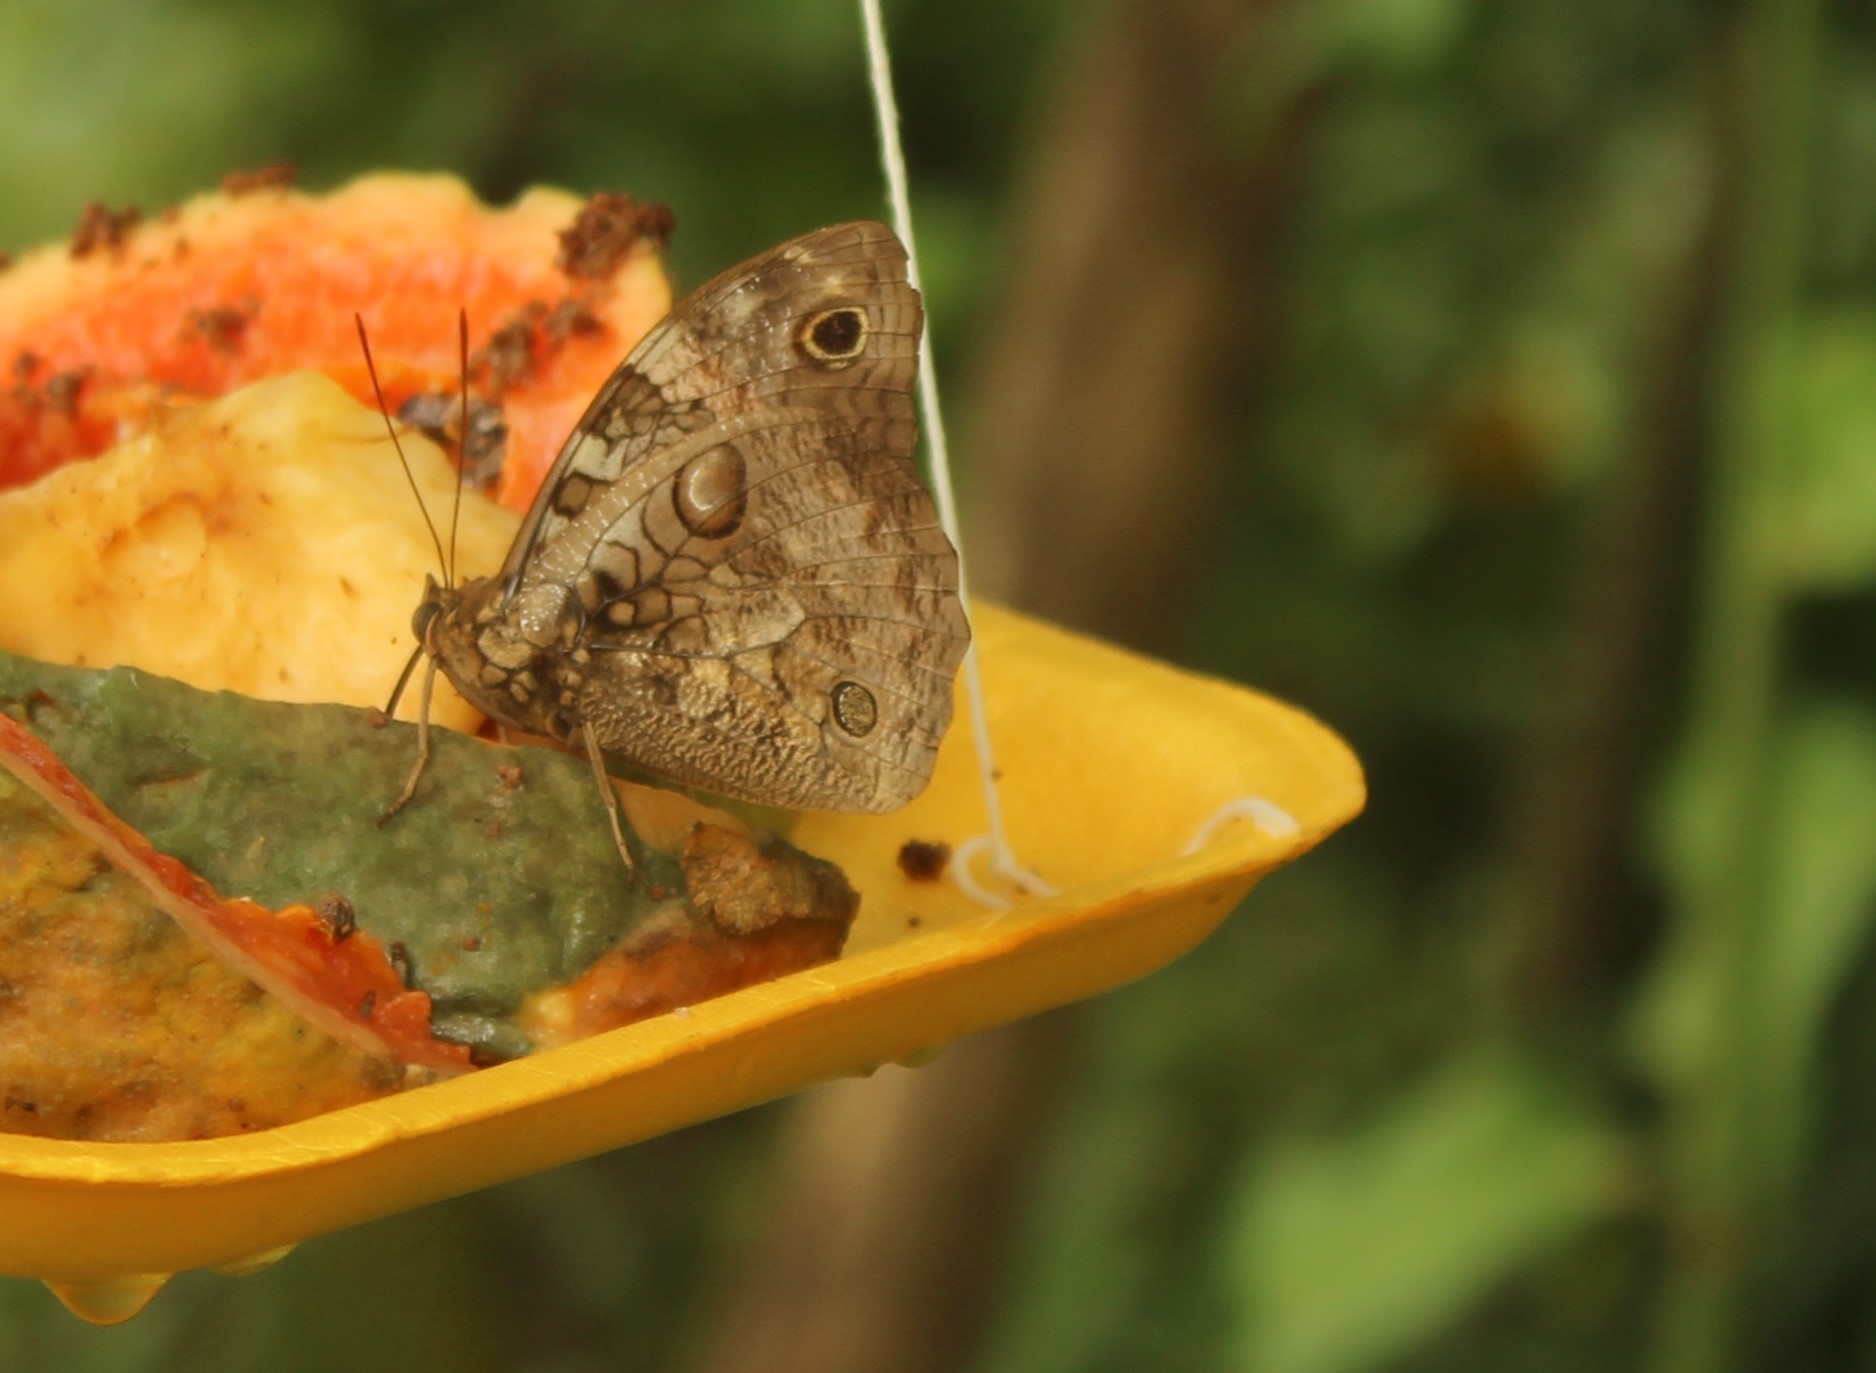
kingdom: Animalia
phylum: Arthropoda
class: Insecta
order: Lepidoptera
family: Nymphalidae
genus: Opsiphanes
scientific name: Opsiphanes cassina
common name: Split-banded owl-butterfly
